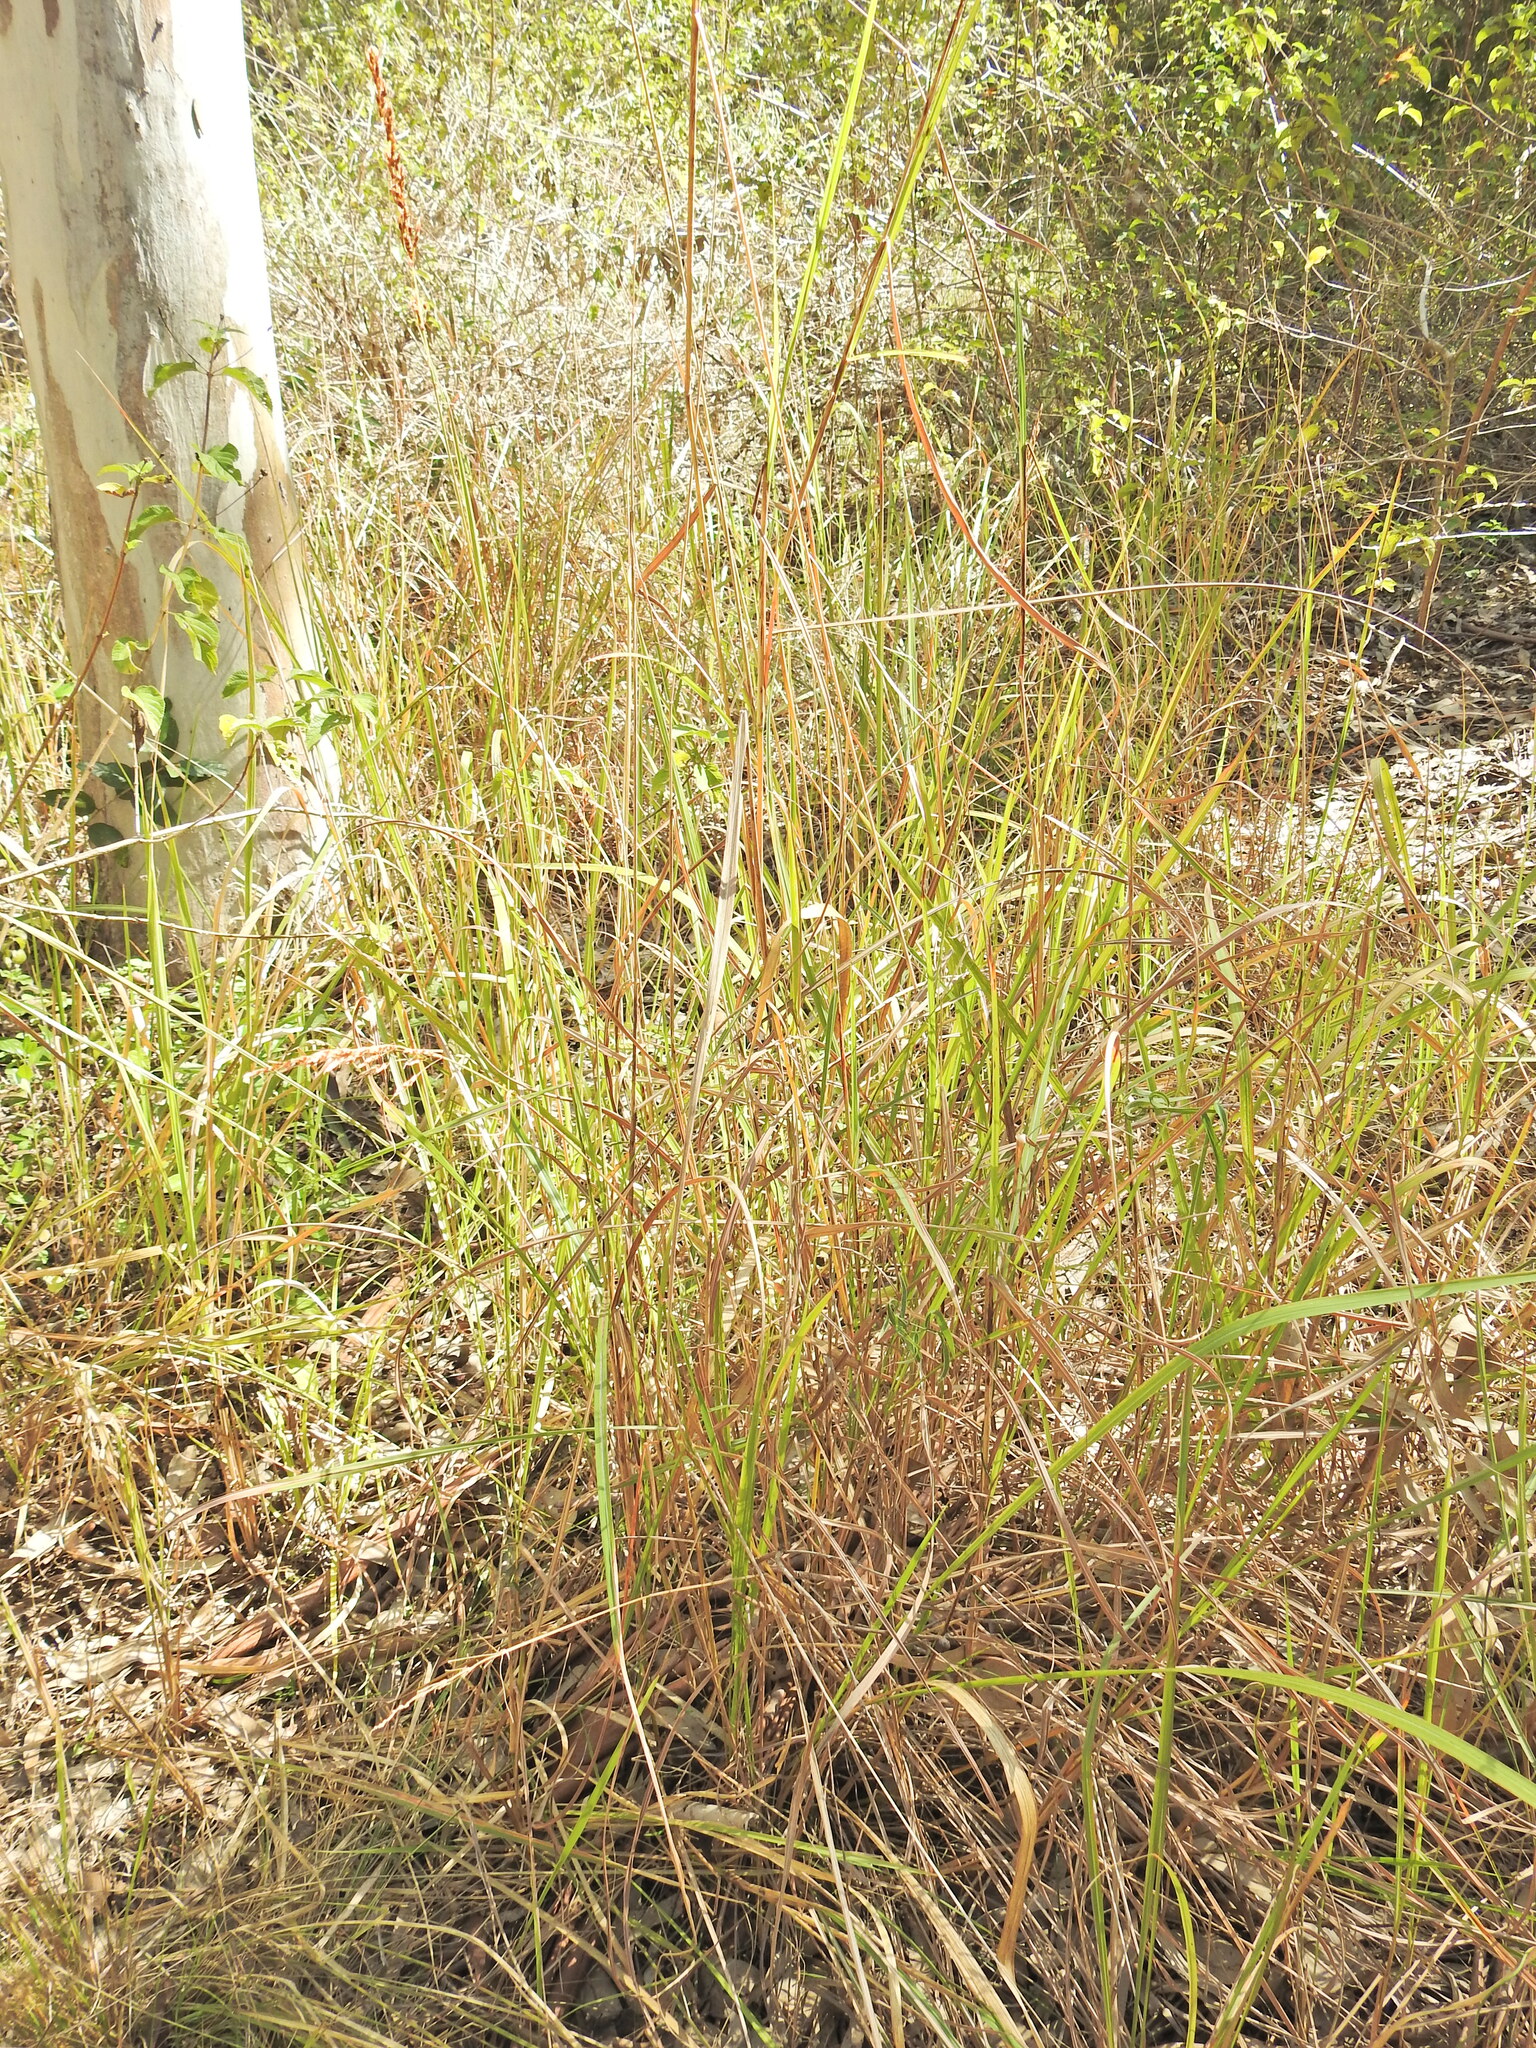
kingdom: Plantae
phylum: Tracheophyta
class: Liliopsida
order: Poales
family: Poaceae
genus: Sarga
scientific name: Sarga leioclada
